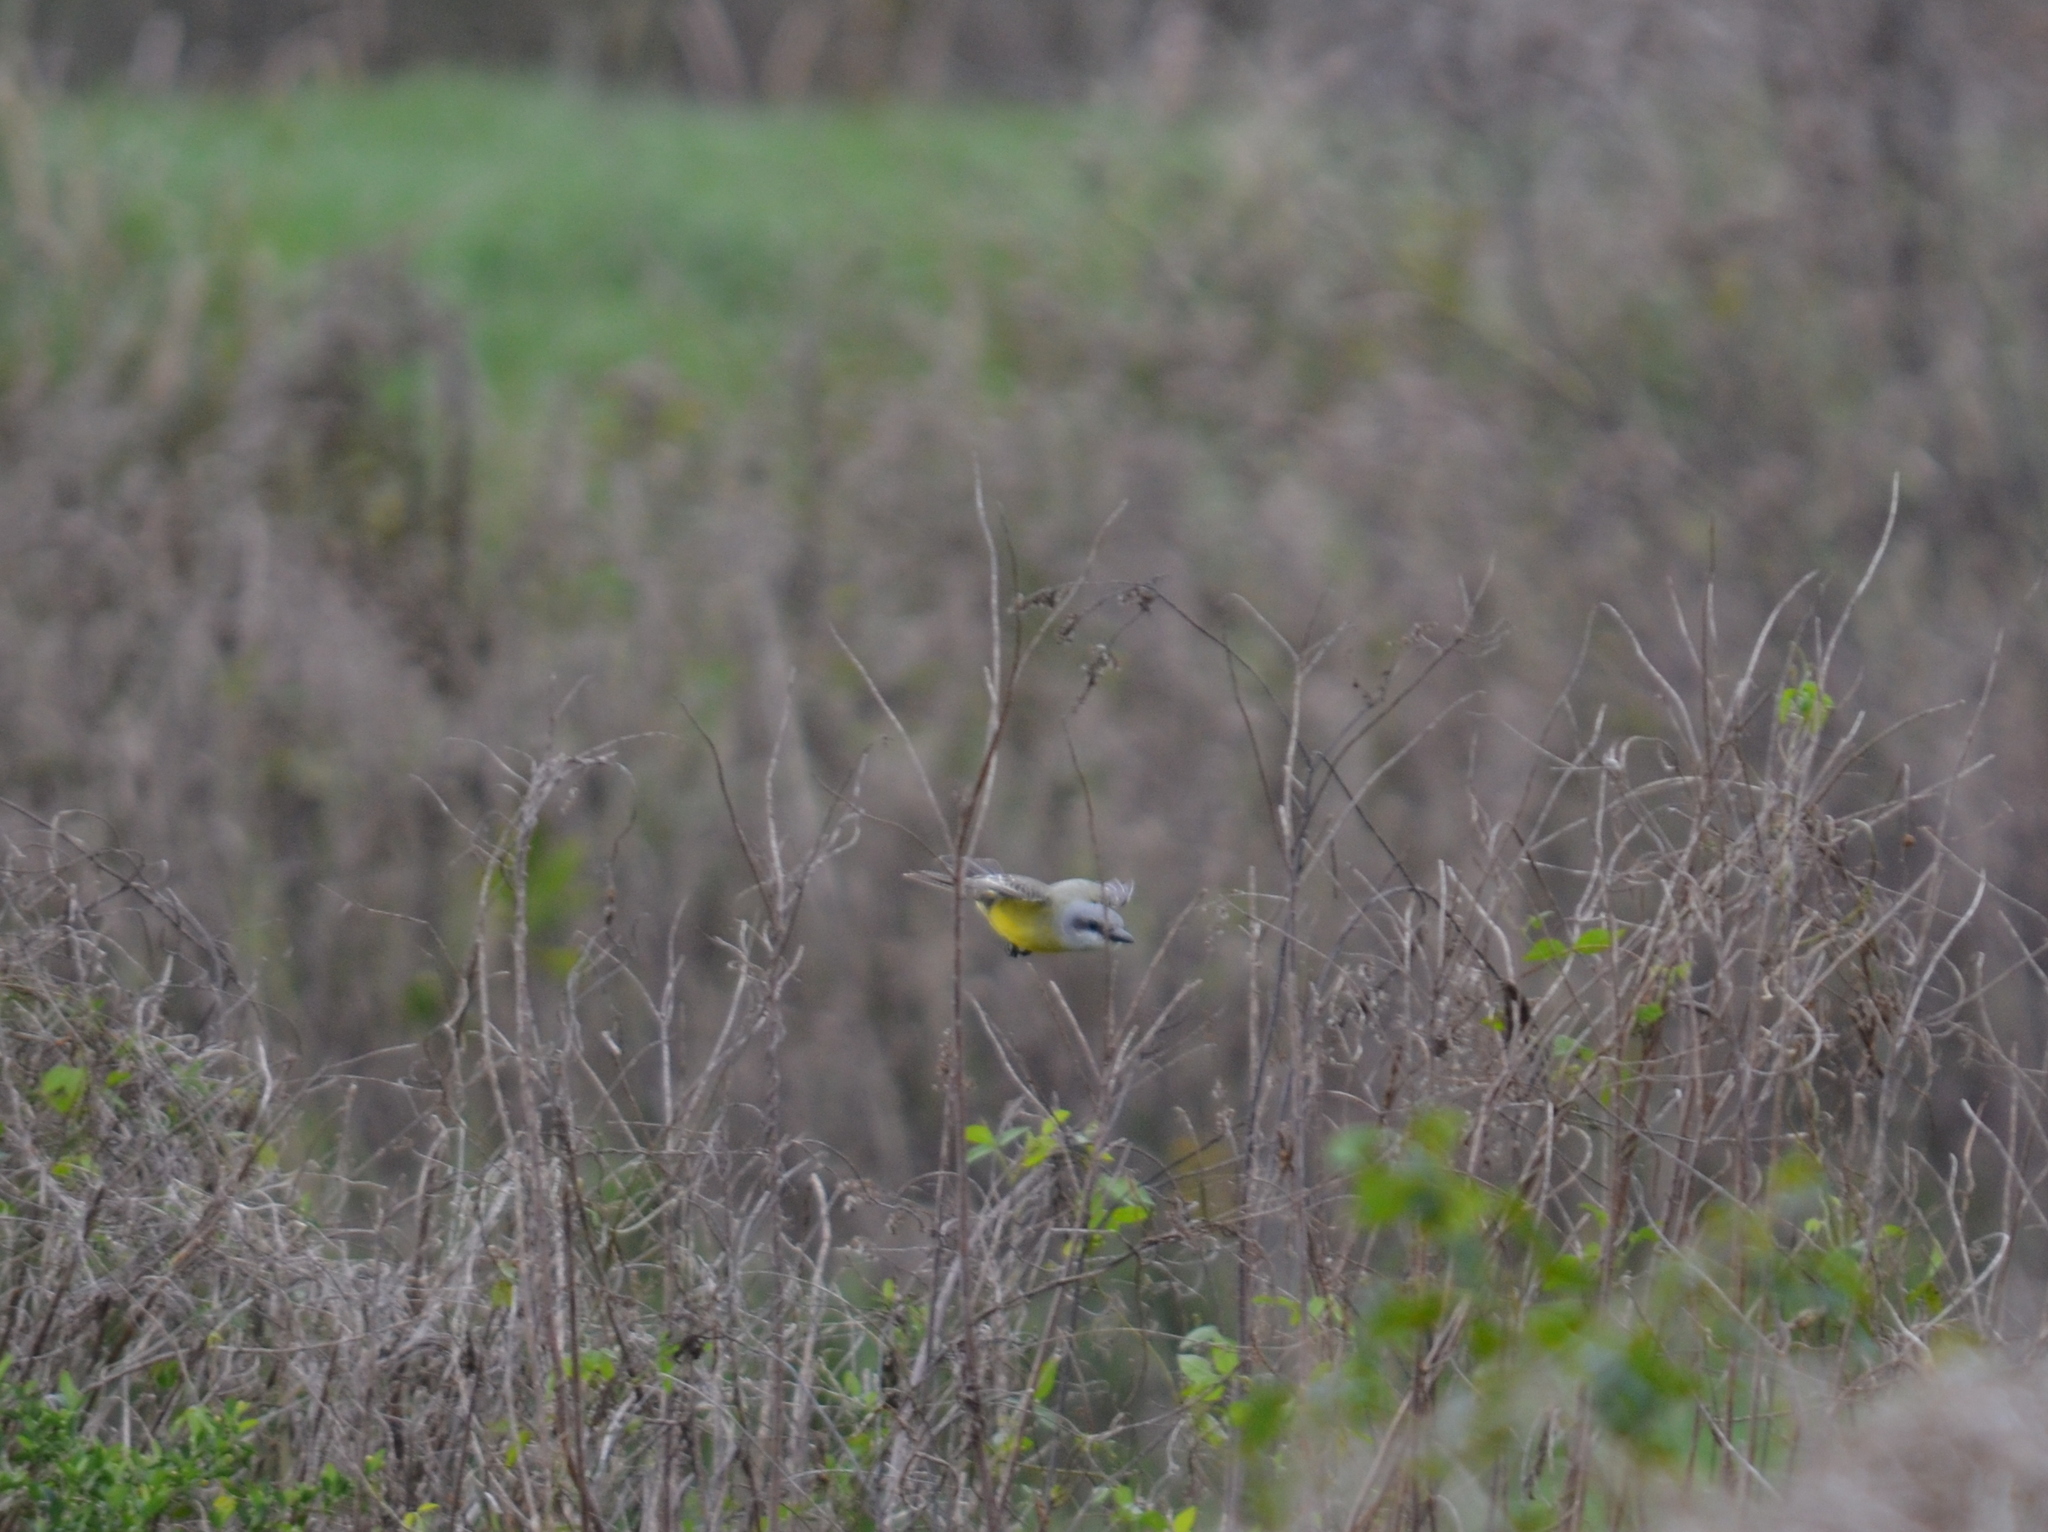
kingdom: Animalia
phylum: Chordata
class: Aves
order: Passeriformes
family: Tyrannidae
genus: Tyrannus
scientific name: Tyrannus melancholicus
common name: Tropical kingbird
